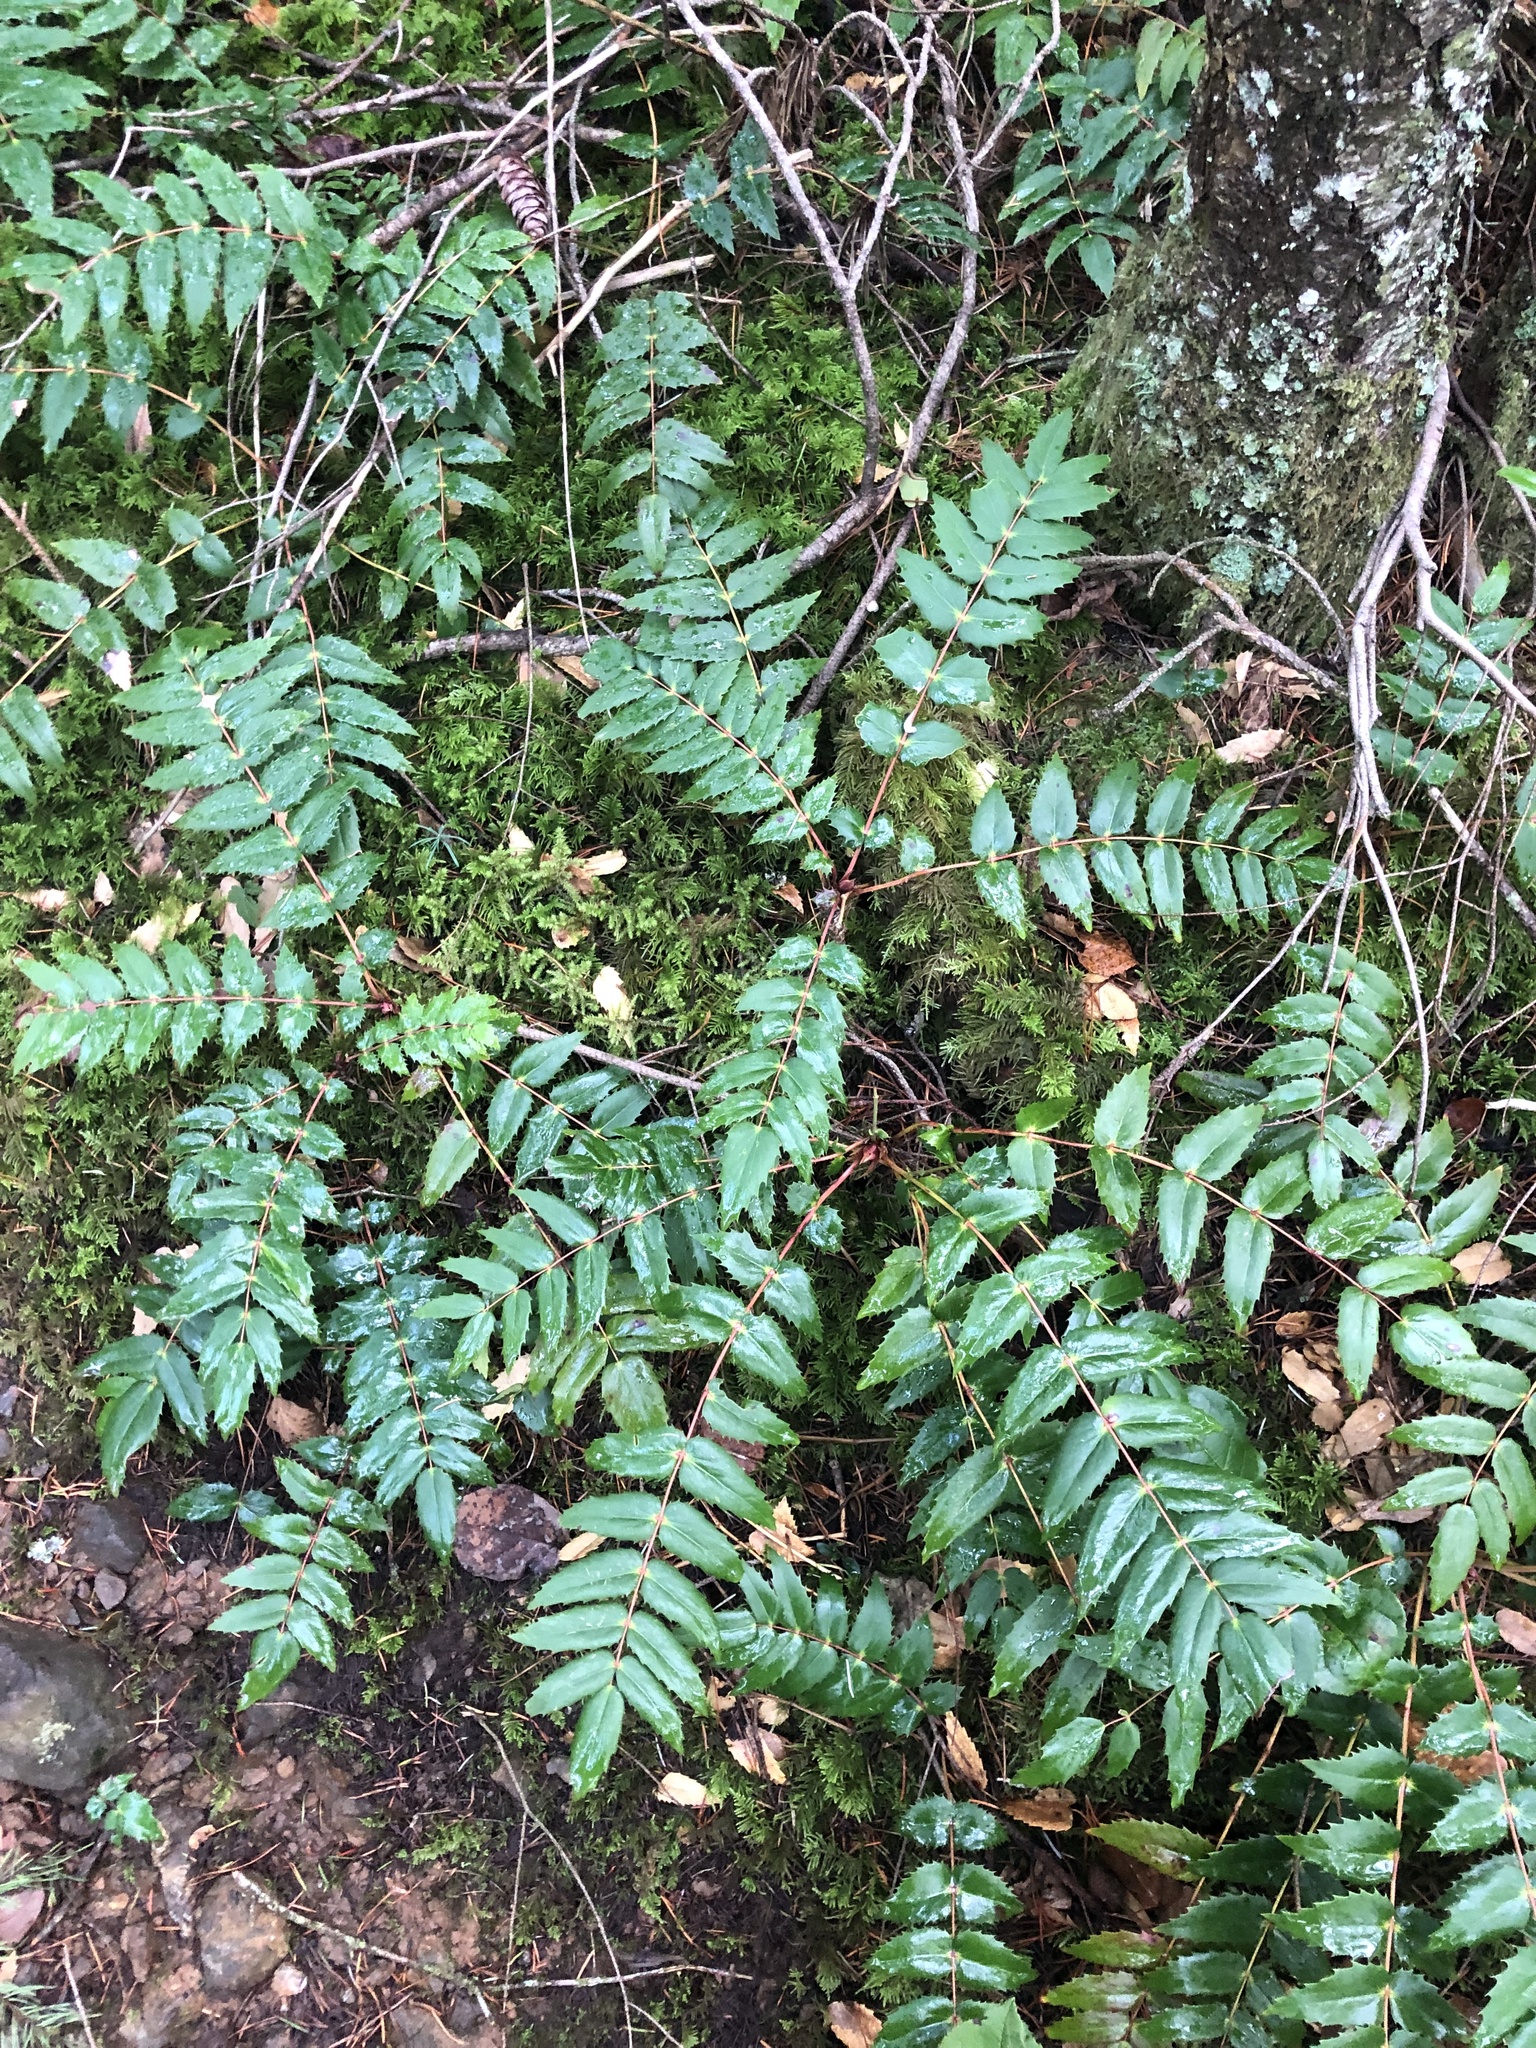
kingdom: Plantae
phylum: Tracheophyta
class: Magnoliopsida
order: Ranunculales
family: Berberidaceae
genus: Mahonia
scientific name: Mahonia nervosa
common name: Cascade oregon-grape
